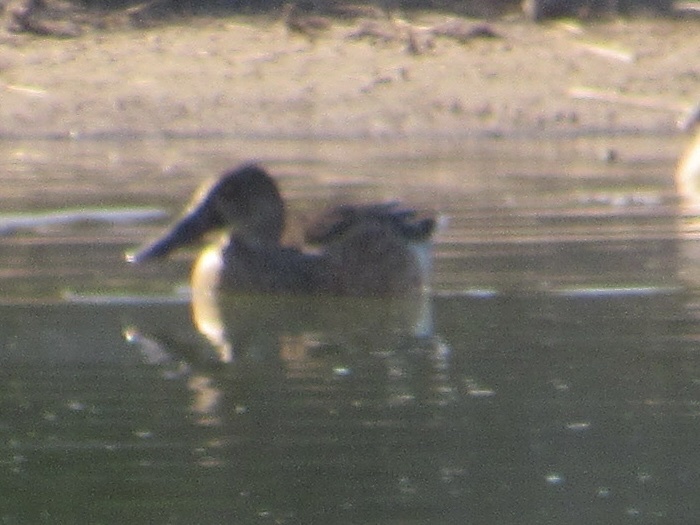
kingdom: Animalia
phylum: Chordata
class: Aves
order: Anseriformes
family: Anatidae
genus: Spatula
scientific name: Spatula clypeata
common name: Northern shoveler
